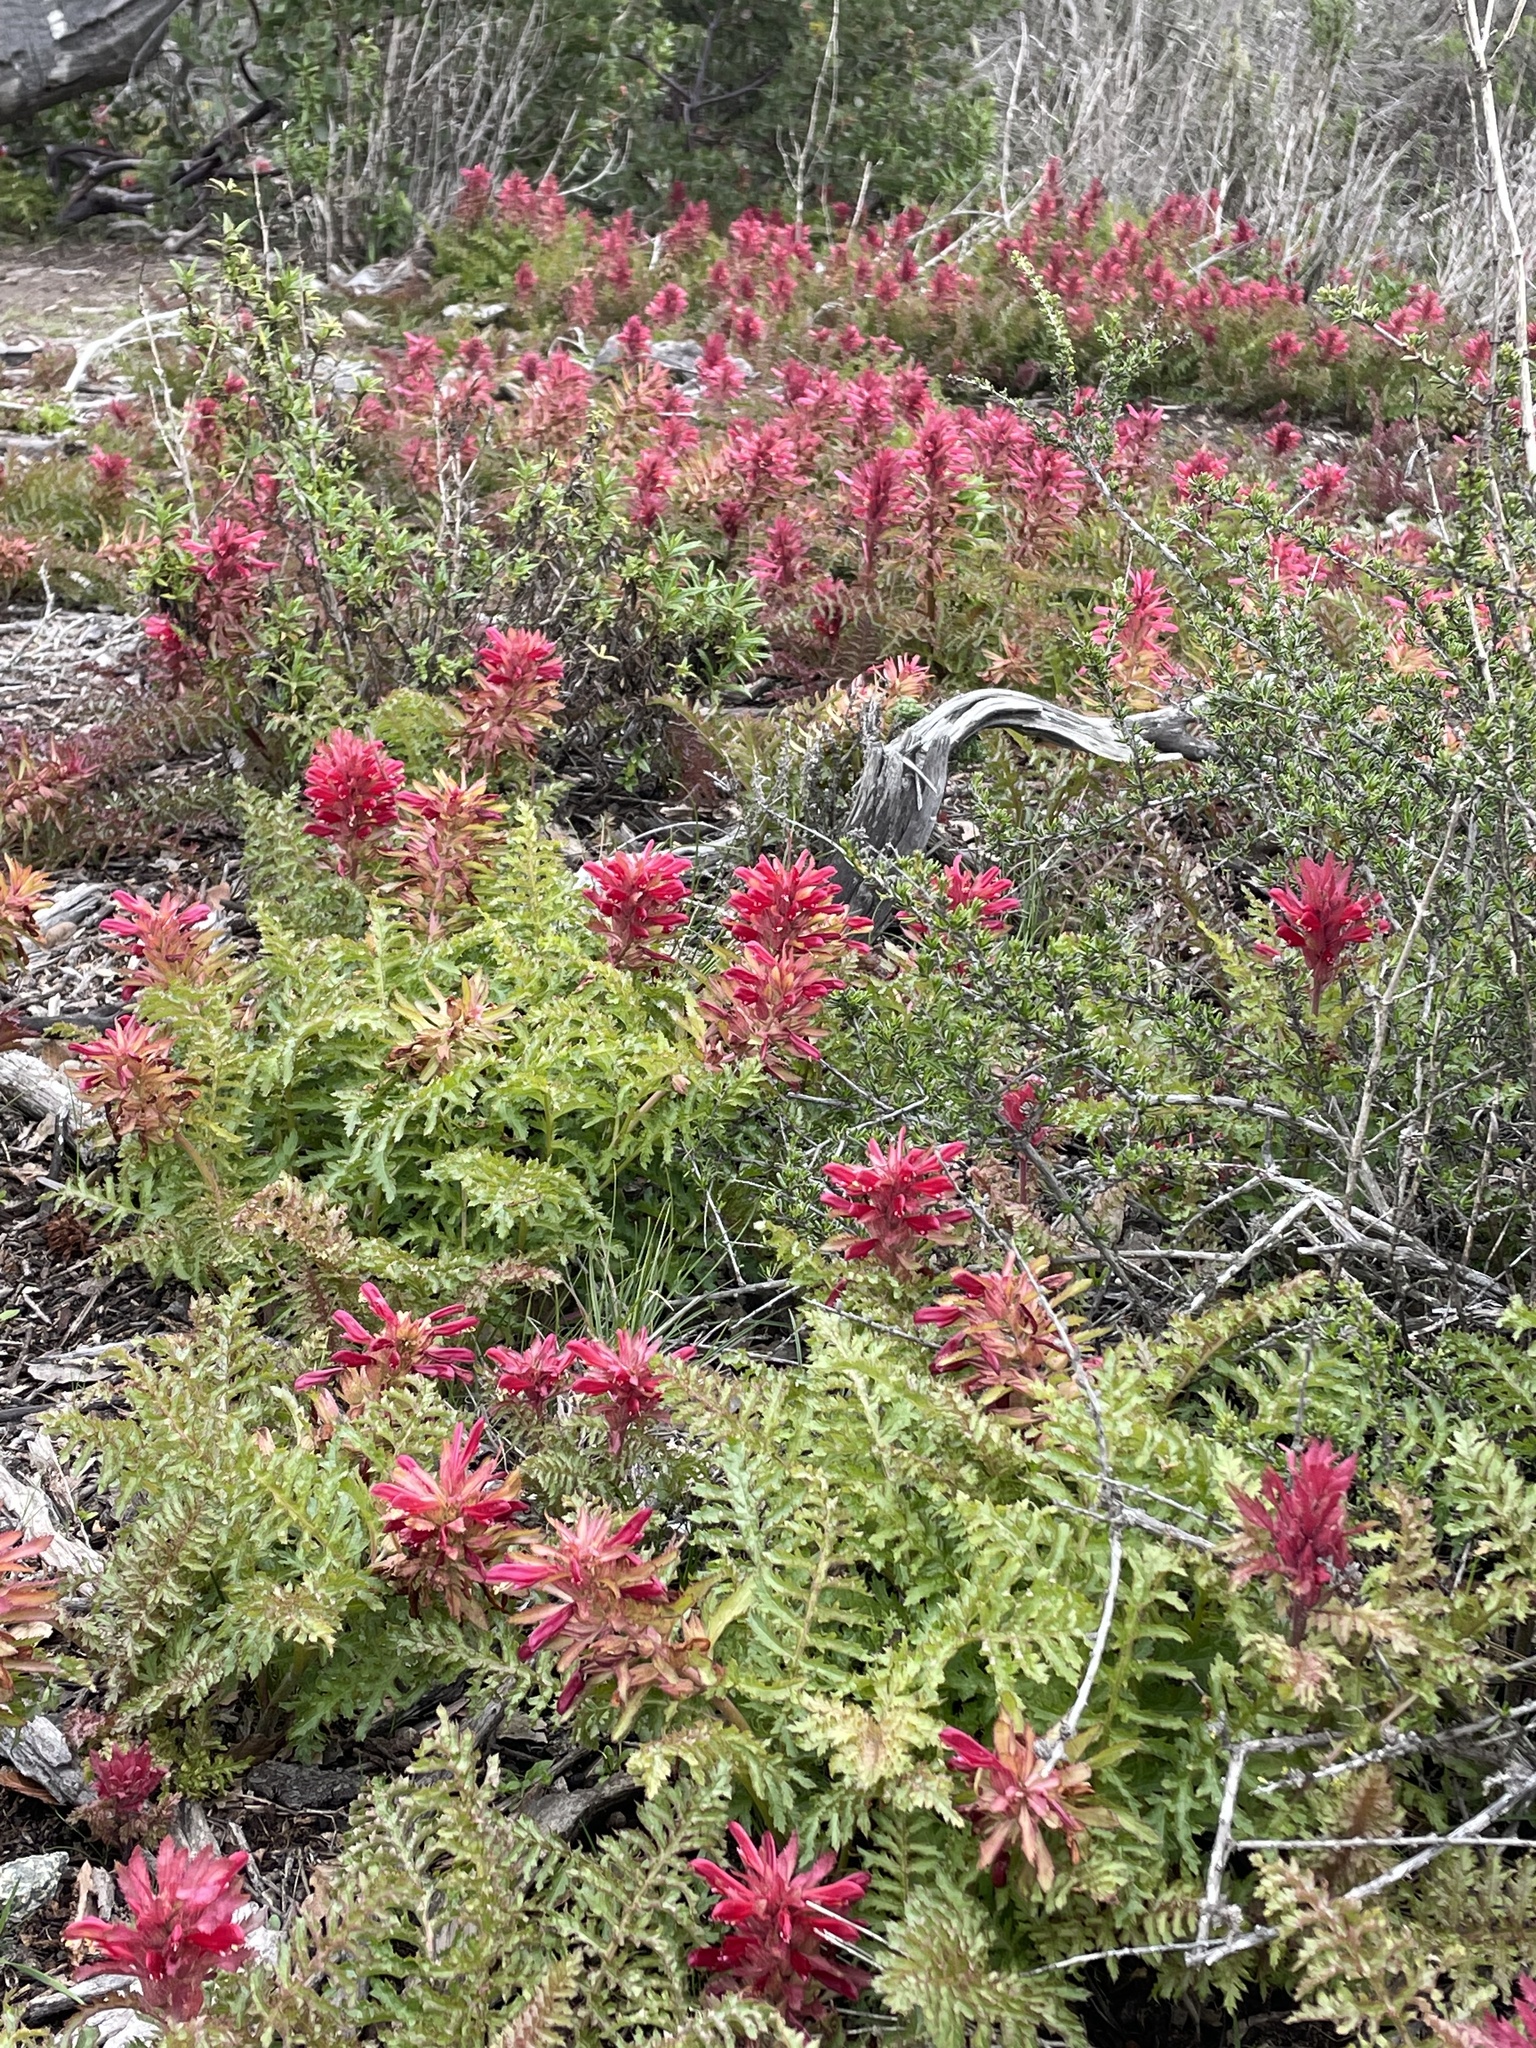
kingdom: Plantae
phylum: Tracheophyta
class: Magnoliopsida
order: Lamiales
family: Orobanchaceae
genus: Pedicularis
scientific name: Pedicularis densiflora
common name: Indian warrior
